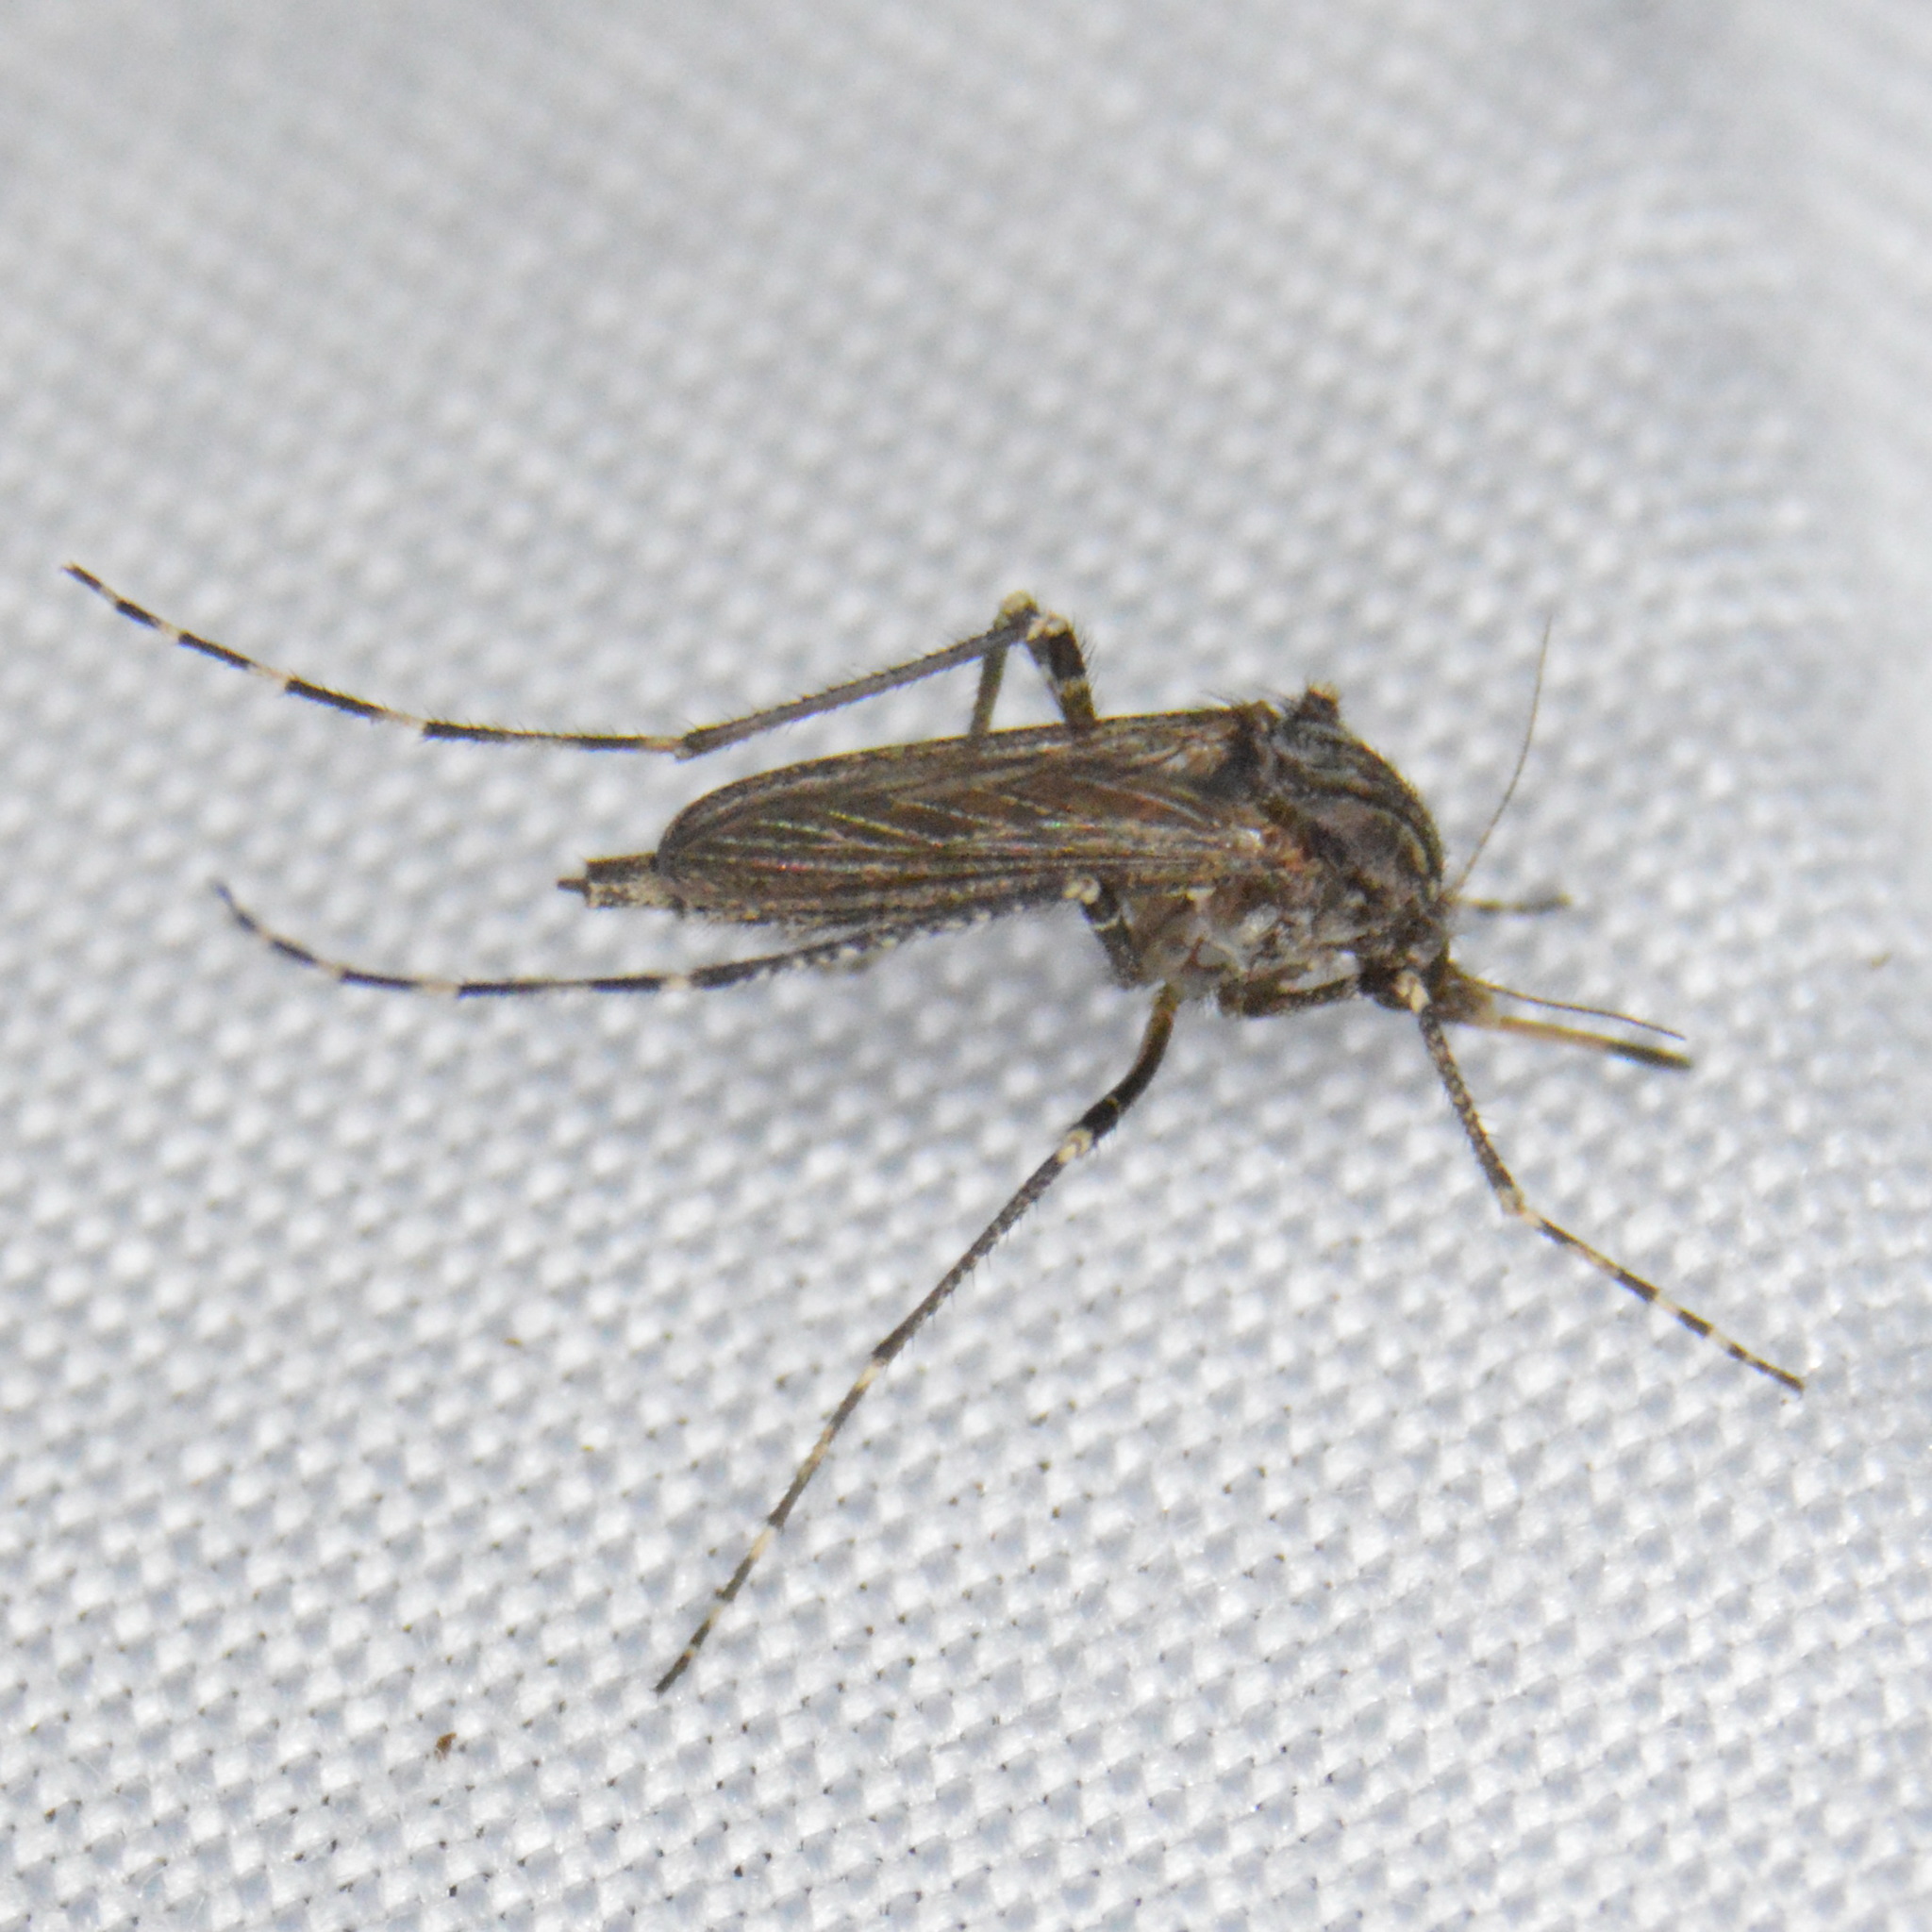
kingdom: Animalia
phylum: Arthropoda
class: Insecta
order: Diptera
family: Culicidae
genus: Psorophora
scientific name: Psorophora columbiae
